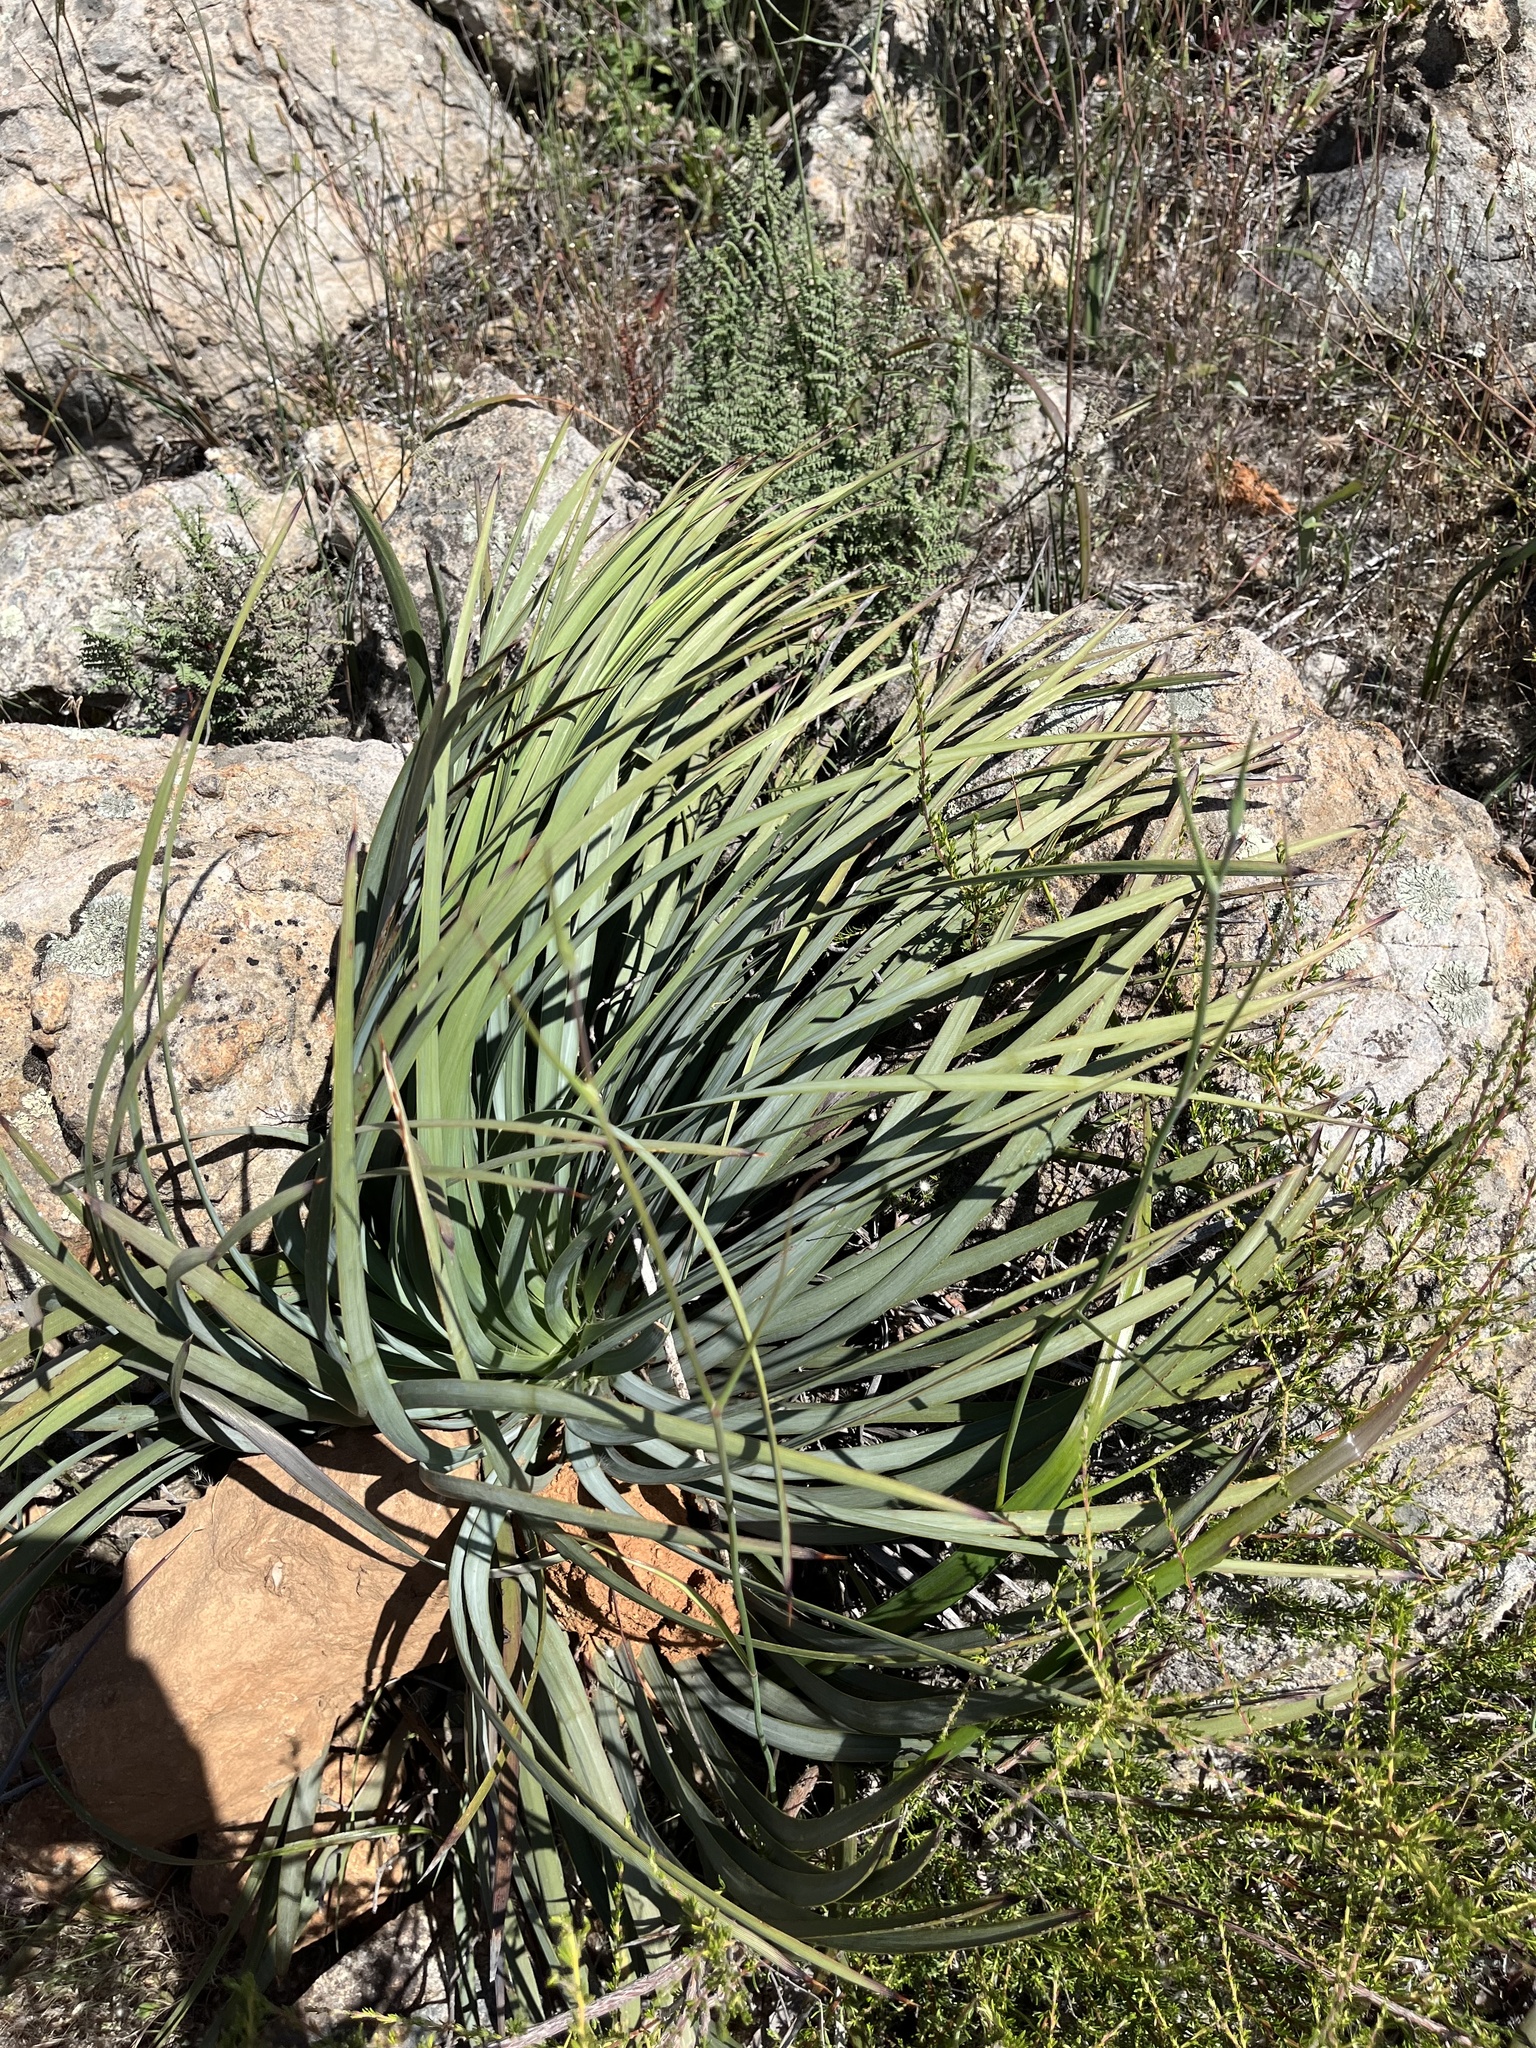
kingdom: Plantae
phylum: Tracheophyta
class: Liliopsida
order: Asparagales
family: Asparagaceae
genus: Hesperoyucca
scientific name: Hesperoyucca whipplei
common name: Our lord's-candle
